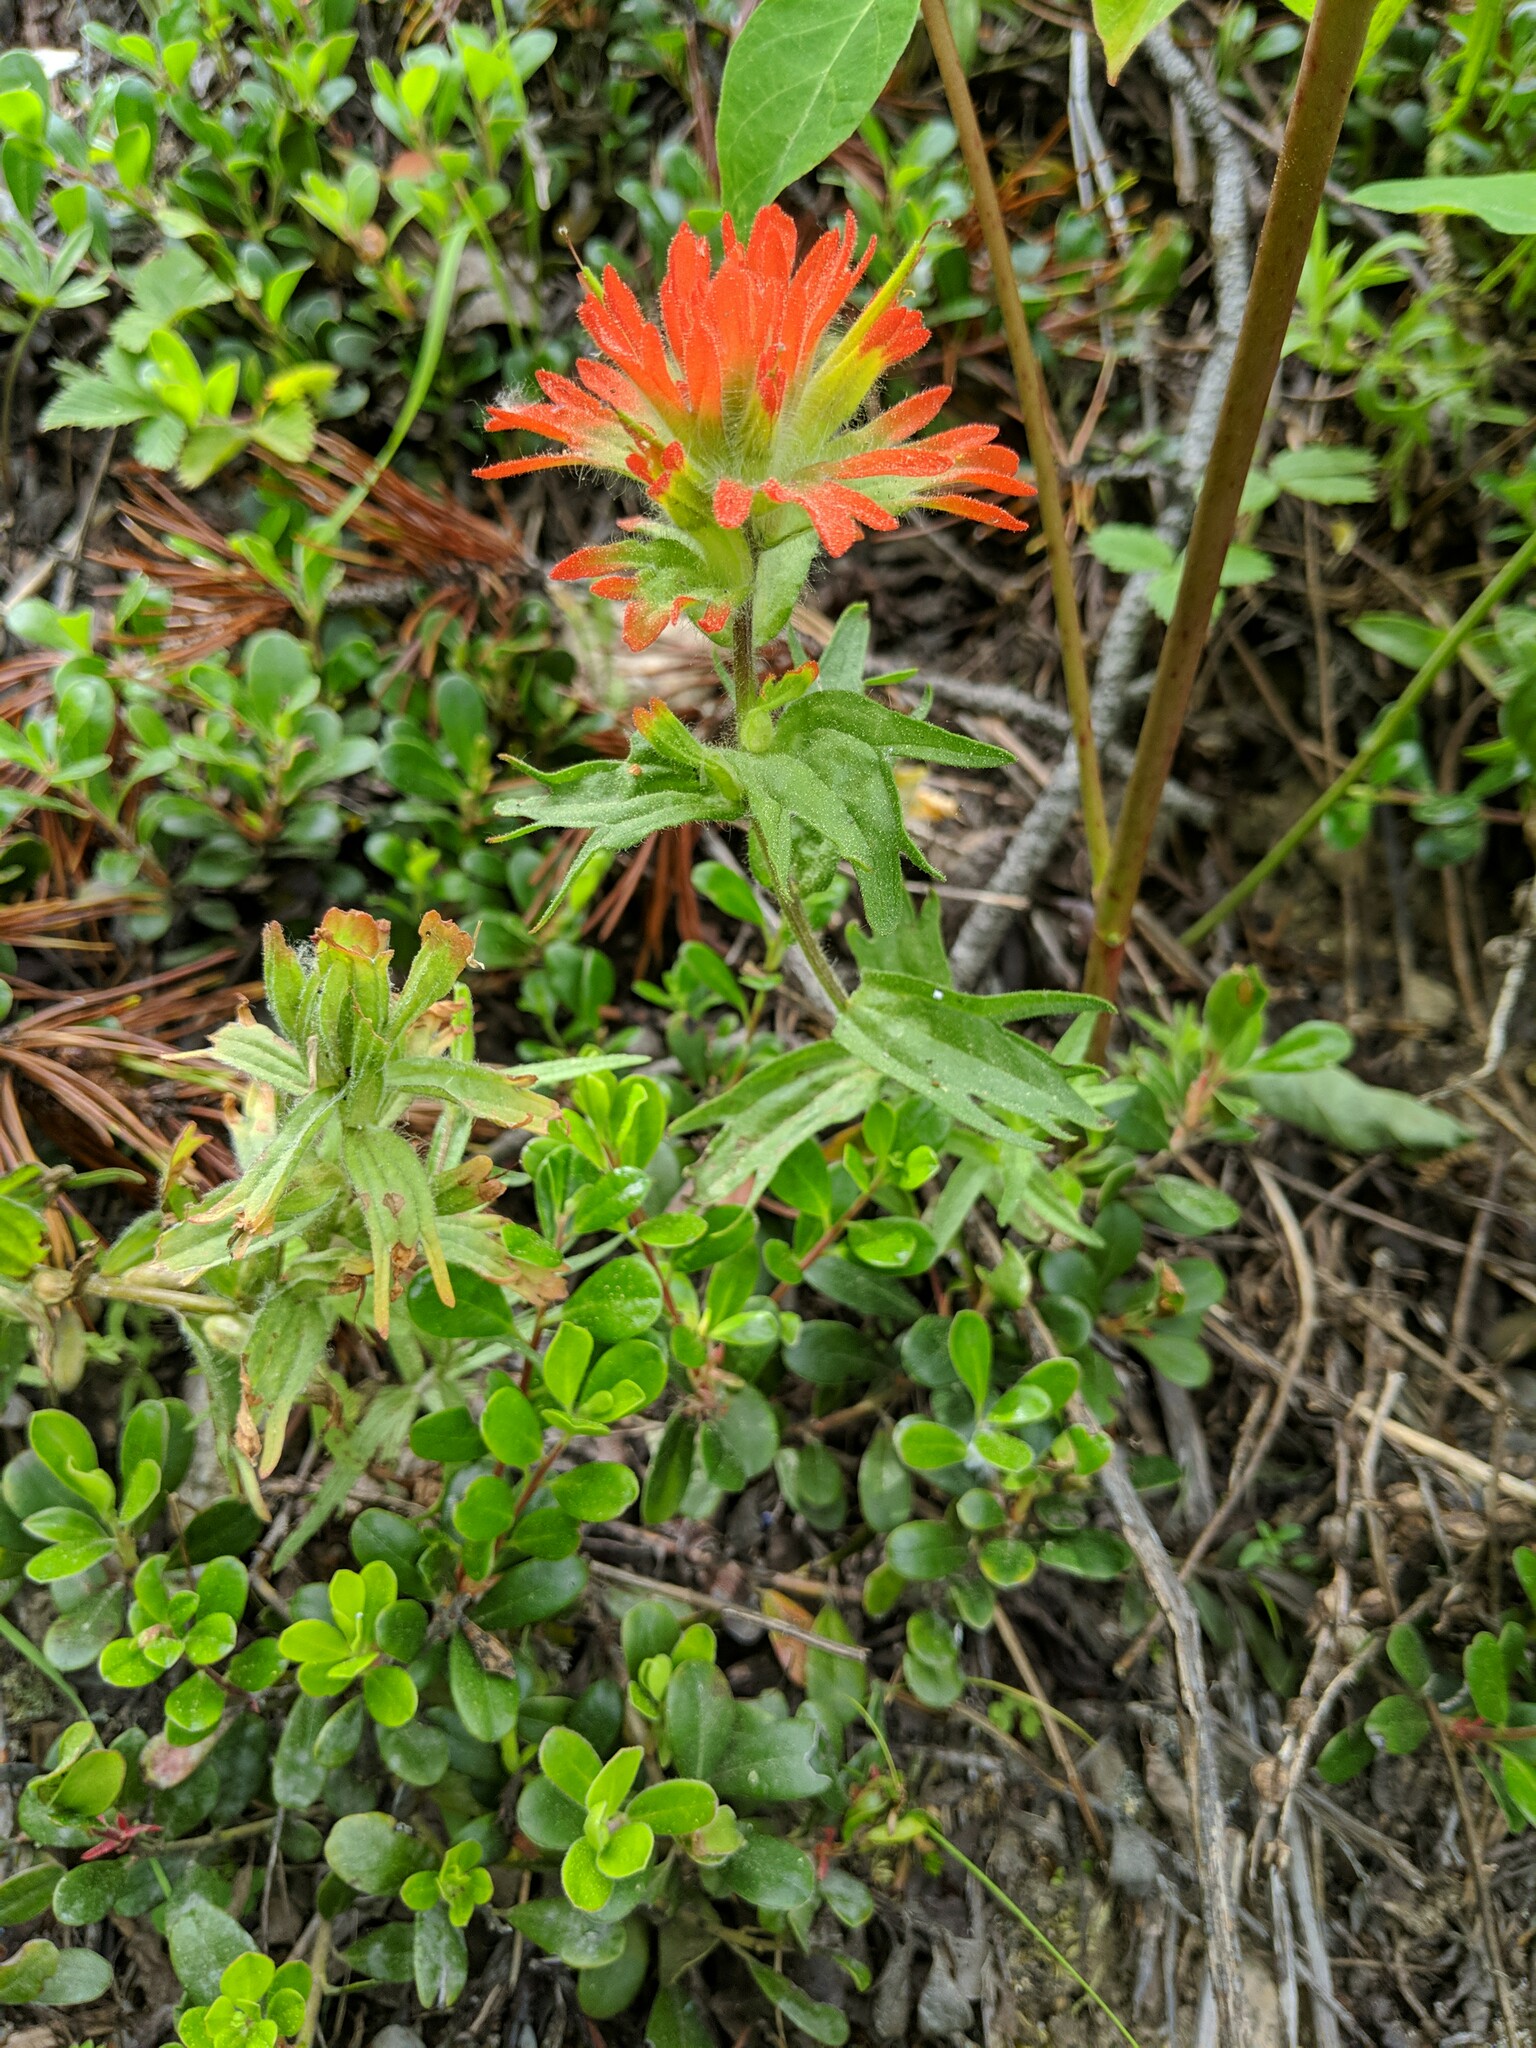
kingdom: Plantae
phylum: Tracheophyta
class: Magnoliopsida
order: Lamiales
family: Orobanchaceae
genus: Castilleja
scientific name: Castilleja hispida
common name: Bristly paintbrush
